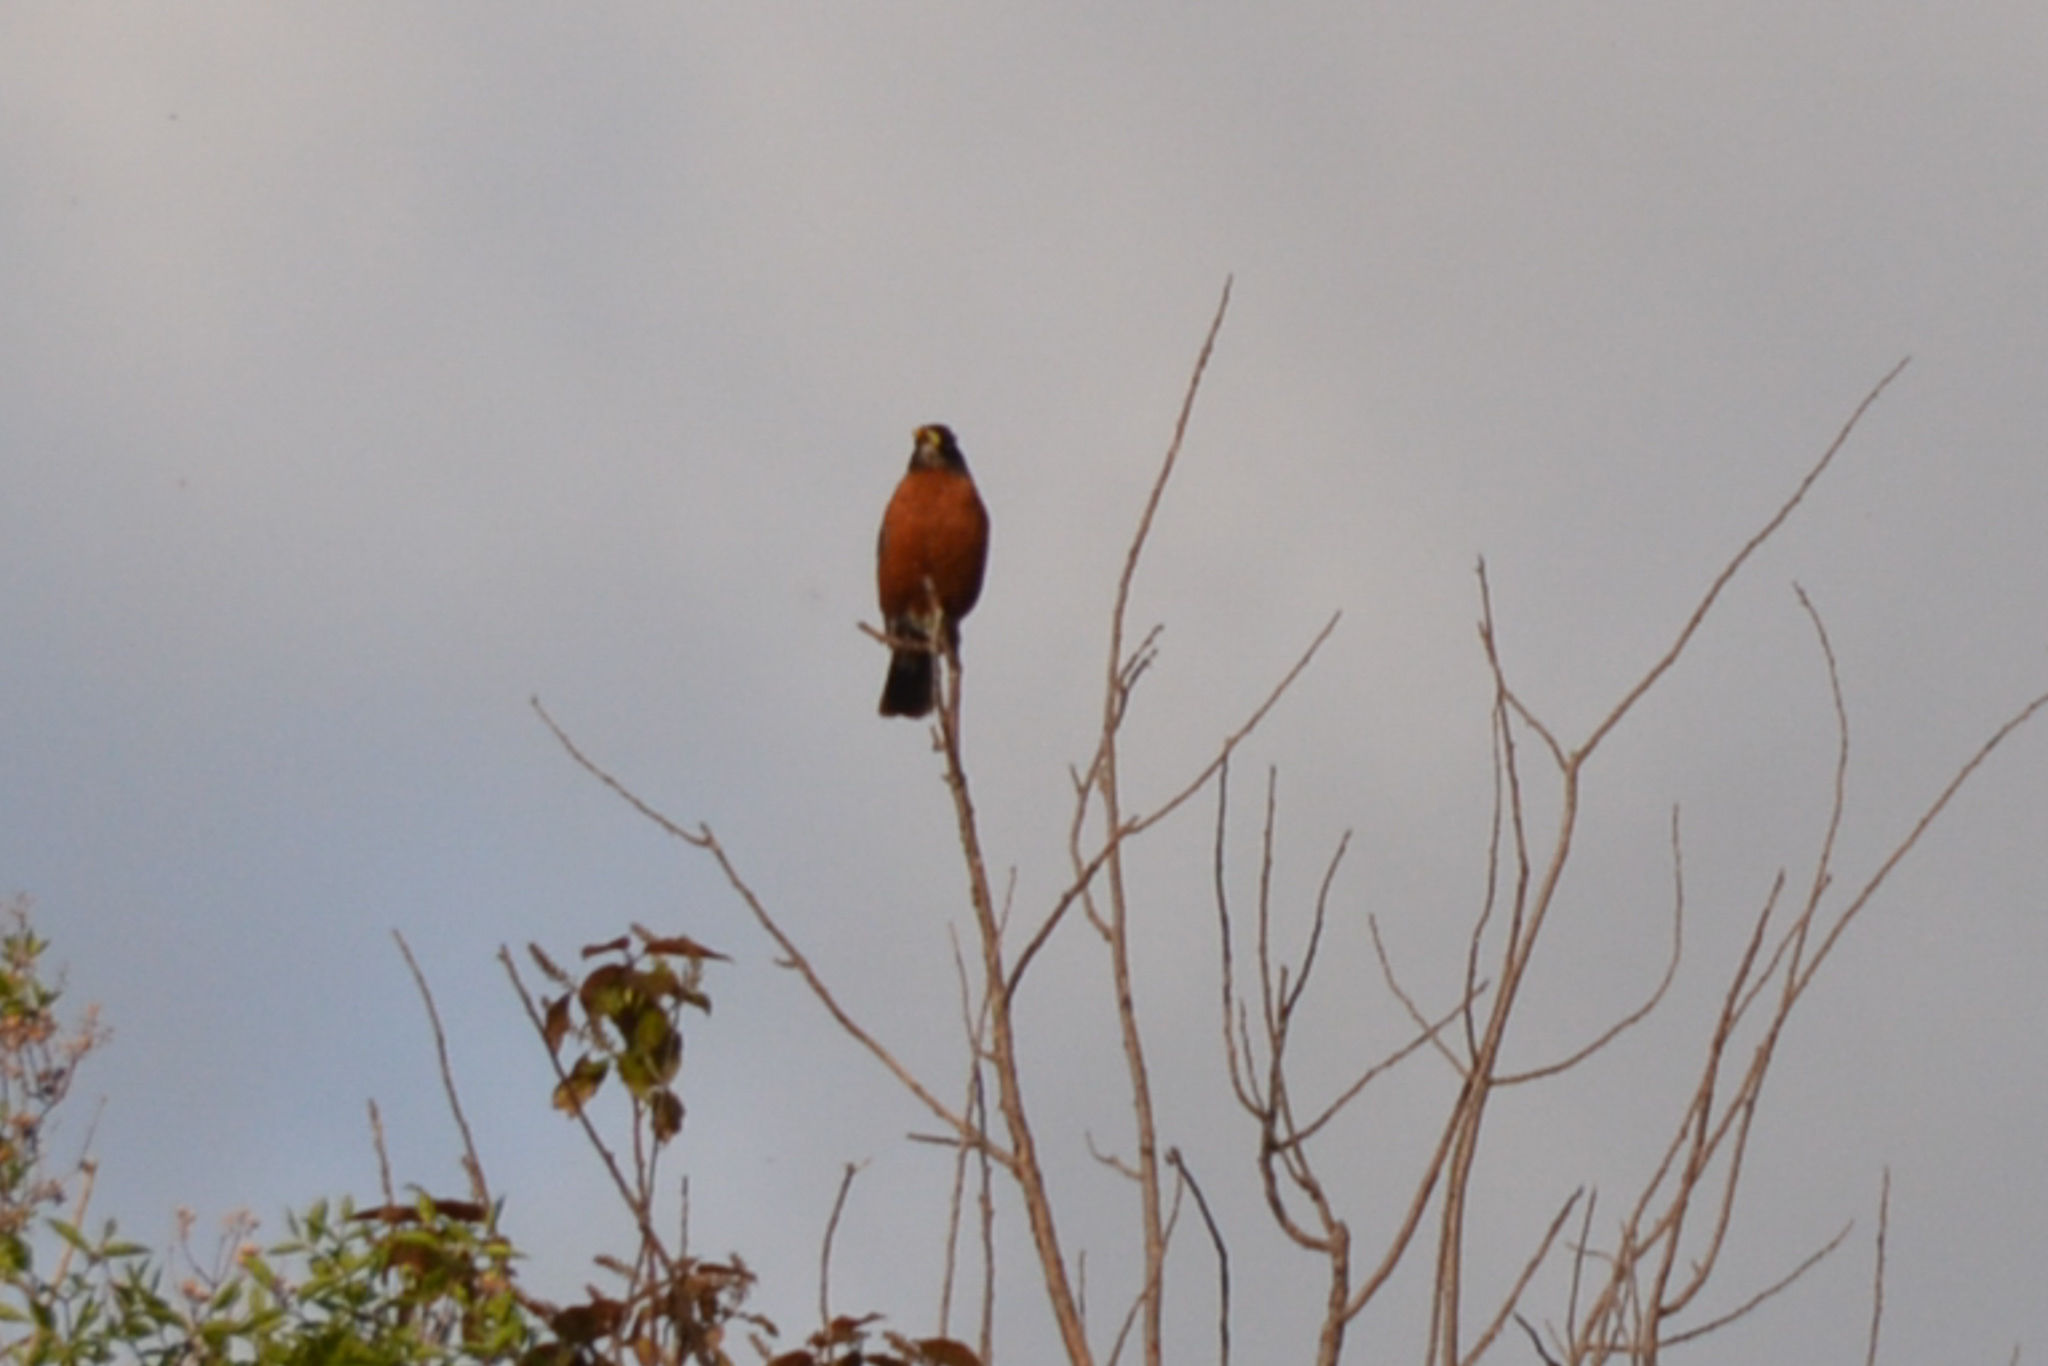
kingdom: Animalia
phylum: Chordata
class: Aves
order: Passeriformes
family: Turdidae
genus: Turdus
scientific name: Turdus migratorius
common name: American robin
